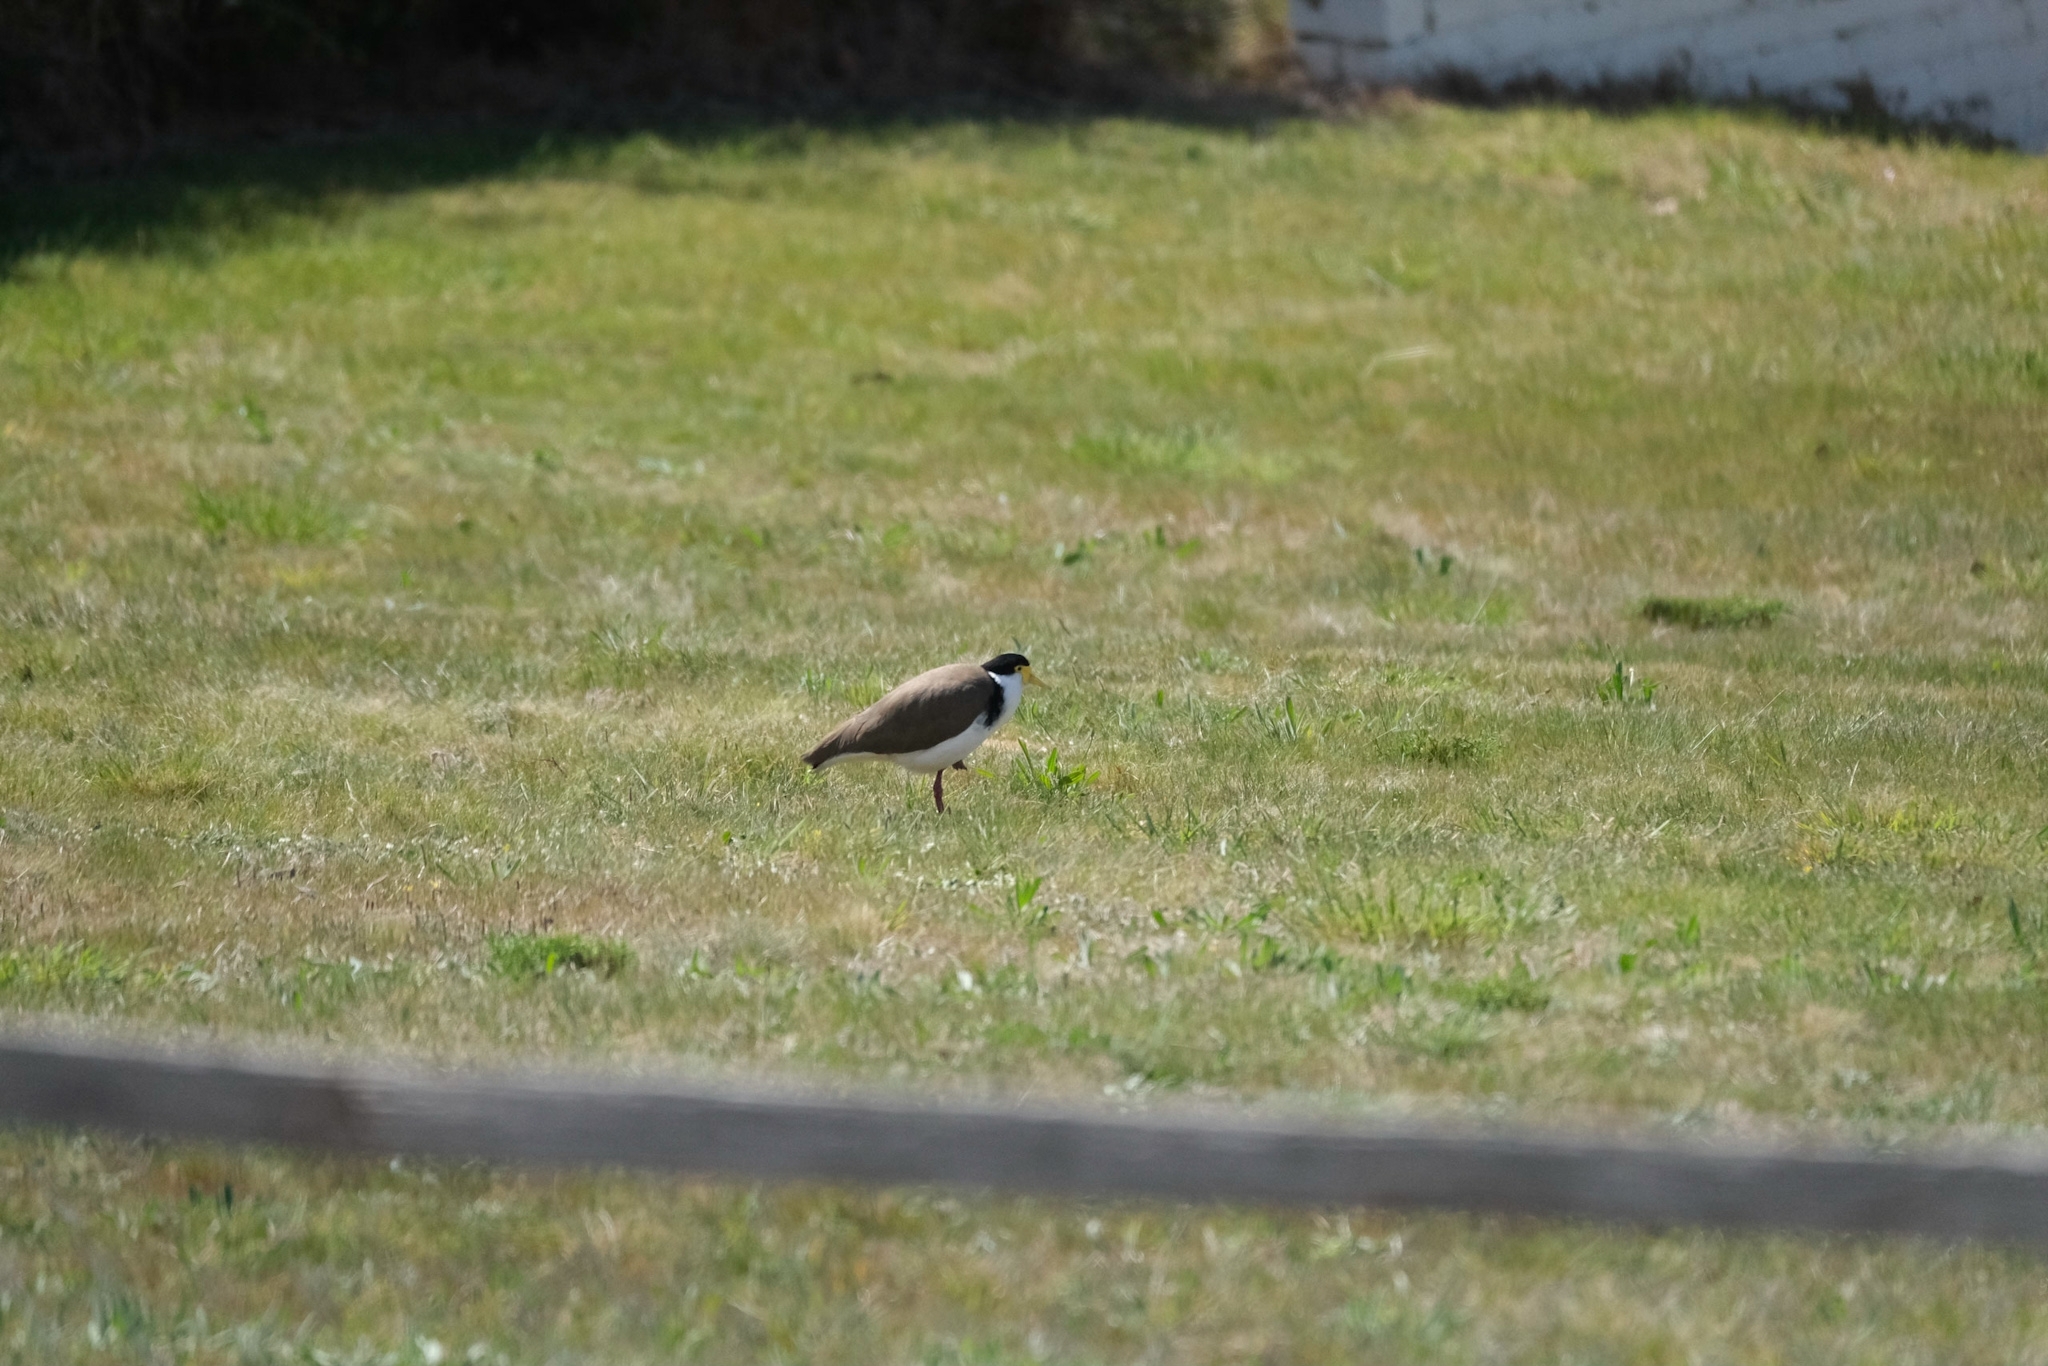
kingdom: Animalia
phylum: Chordata
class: Aves
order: Charadriiformes
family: Charadriidae
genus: Vanellus
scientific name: Vanellus miles
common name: Masked lapwing
